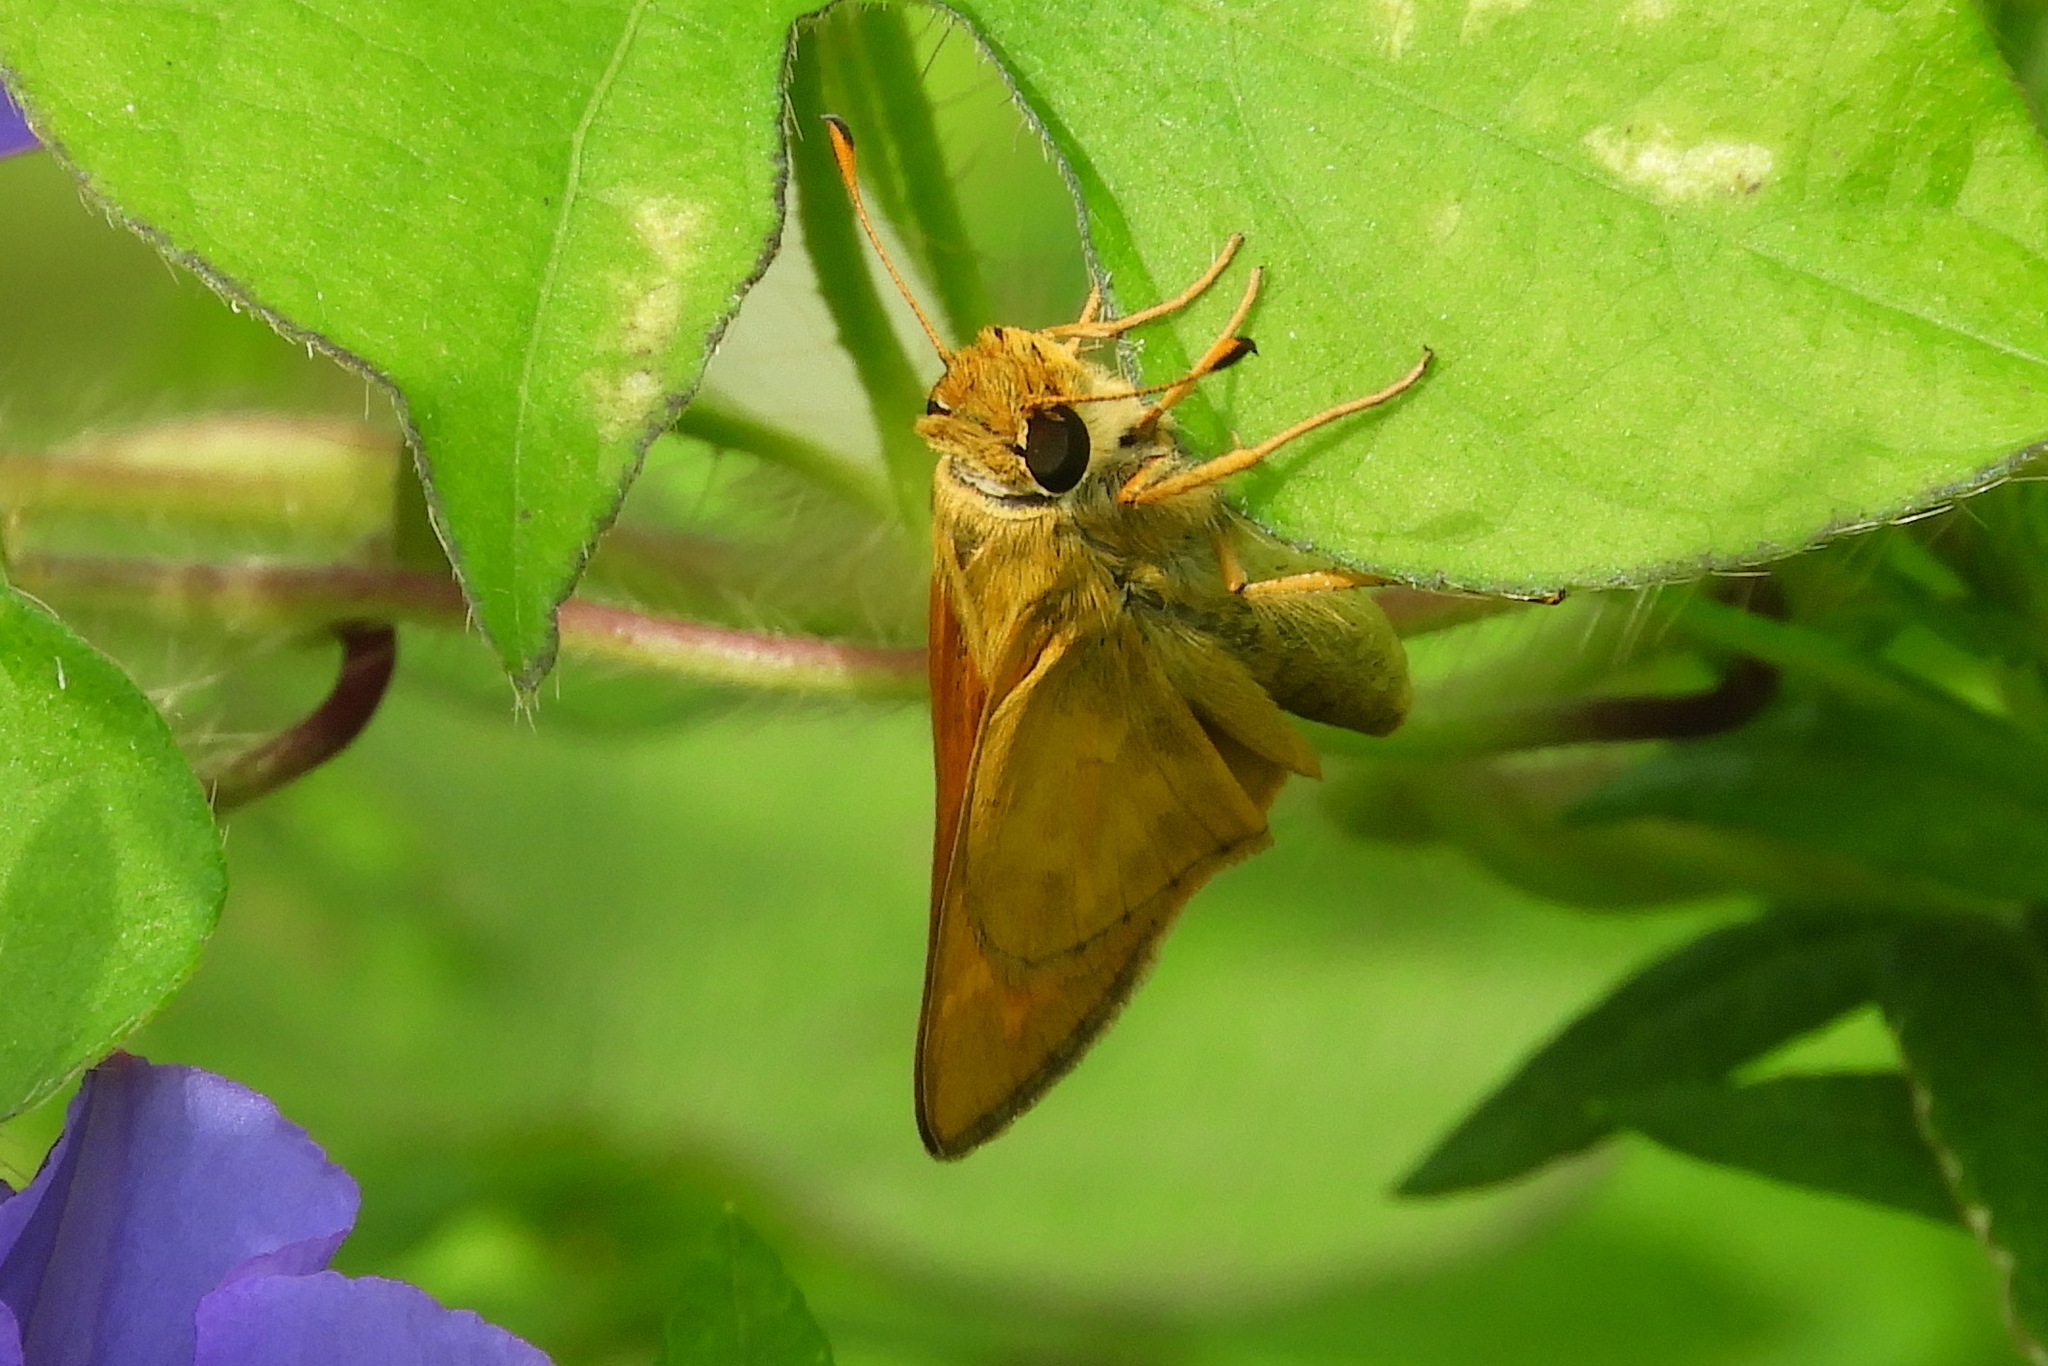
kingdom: Animalia
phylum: Arthropoda
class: Insecta
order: Lepidoptera
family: Hesperiidae
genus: Atalopedes
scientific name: Atalopedes
